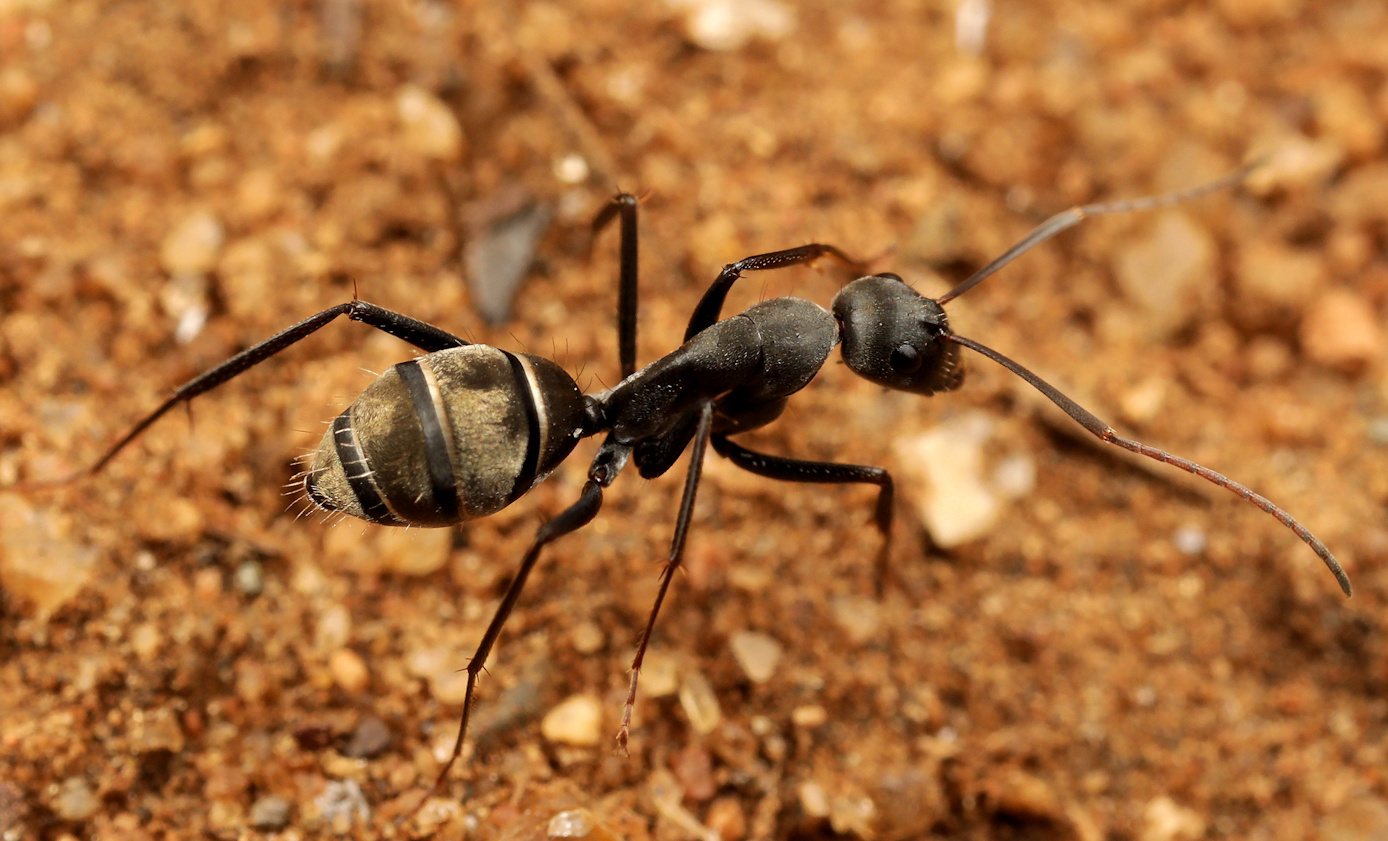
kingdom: Animalia
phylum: Arthropoda
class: Insecta
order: Hymenoptera
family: Formicidae
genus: Camponotus
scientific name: Camponotus cinctellus
